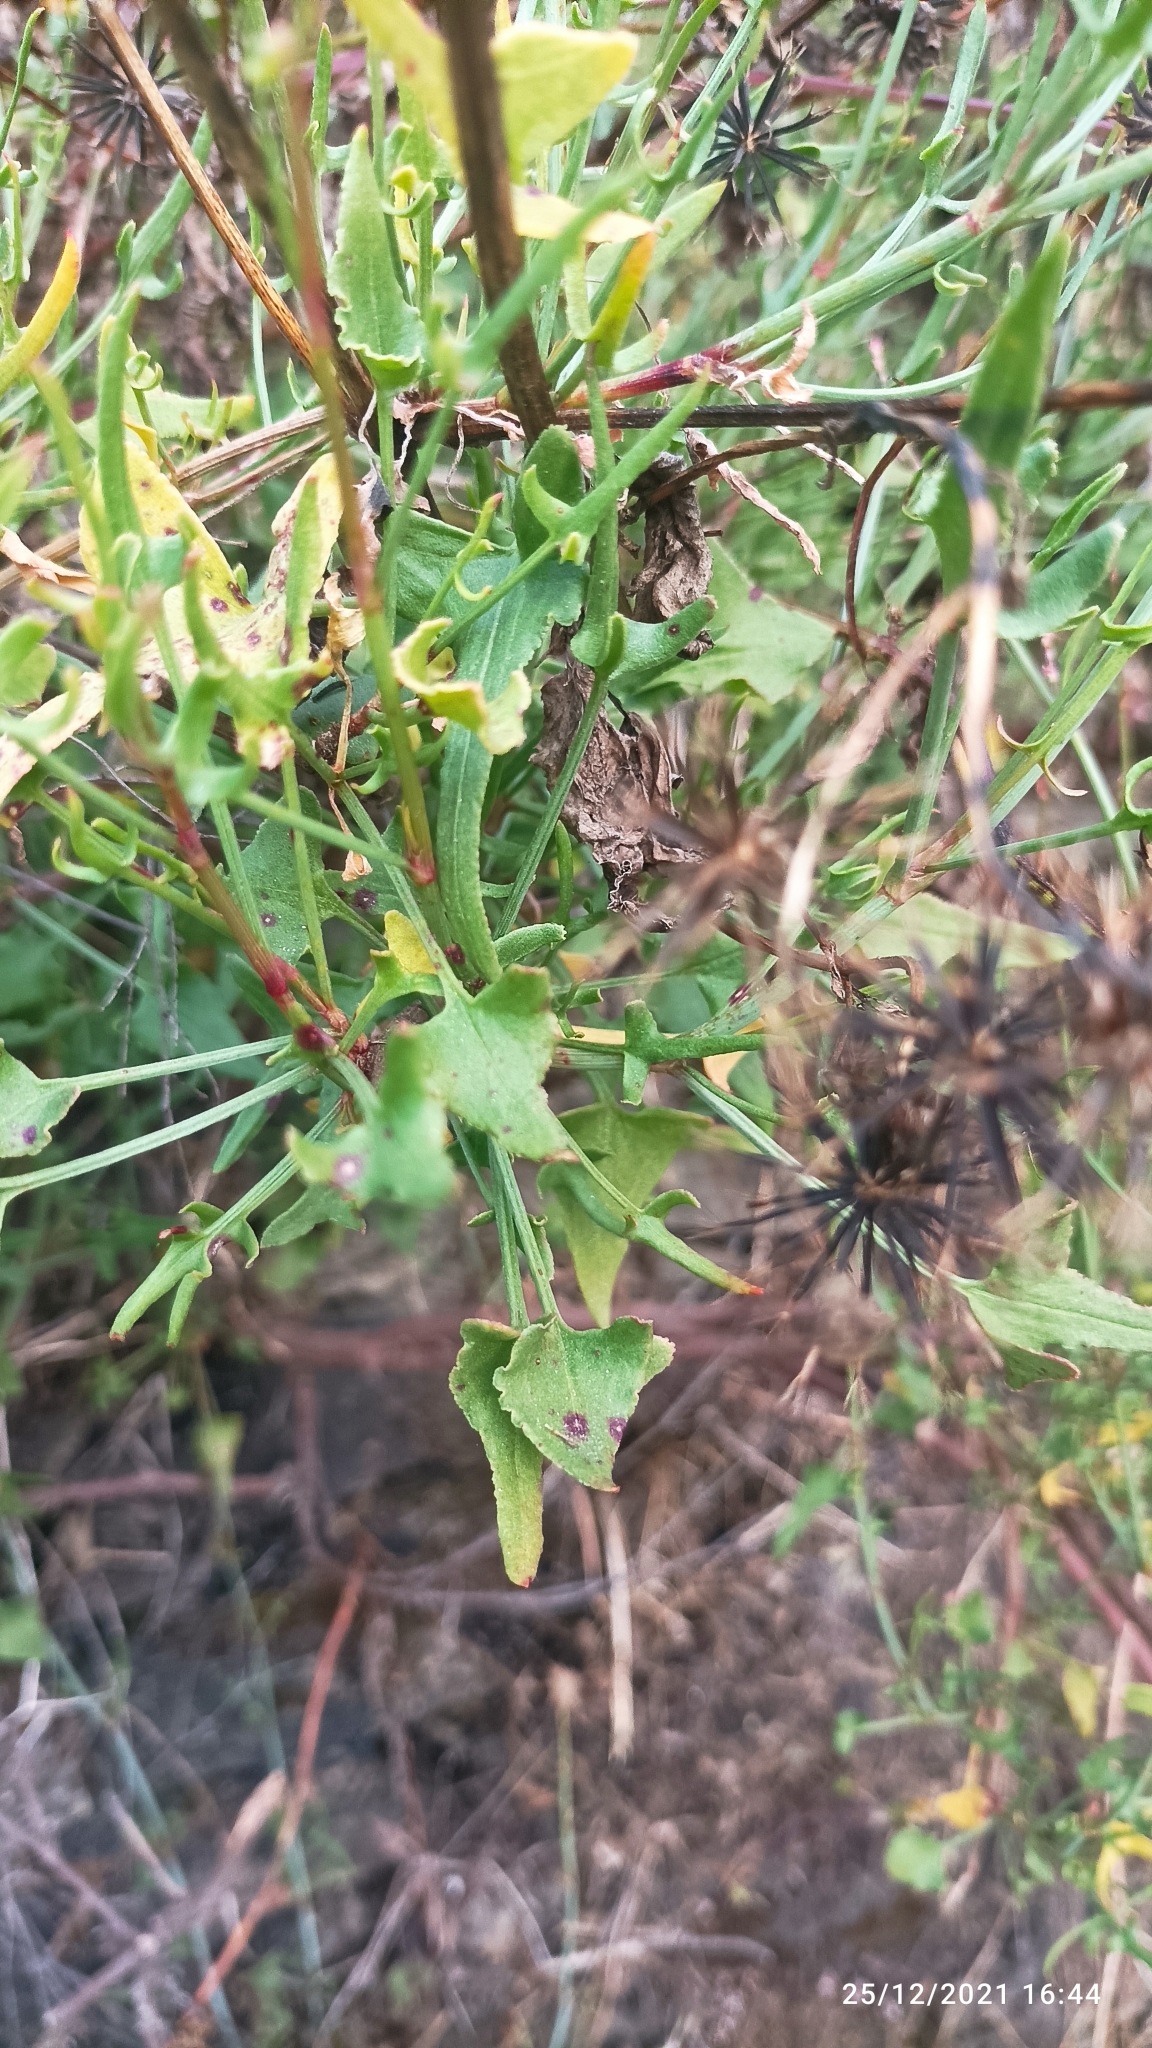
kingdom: Plantae
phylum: Tracheophyta
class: Magnoliopsida
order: Caryophyllales
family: Polygonaceae
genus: Rumex
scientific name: Rumex hastatus
